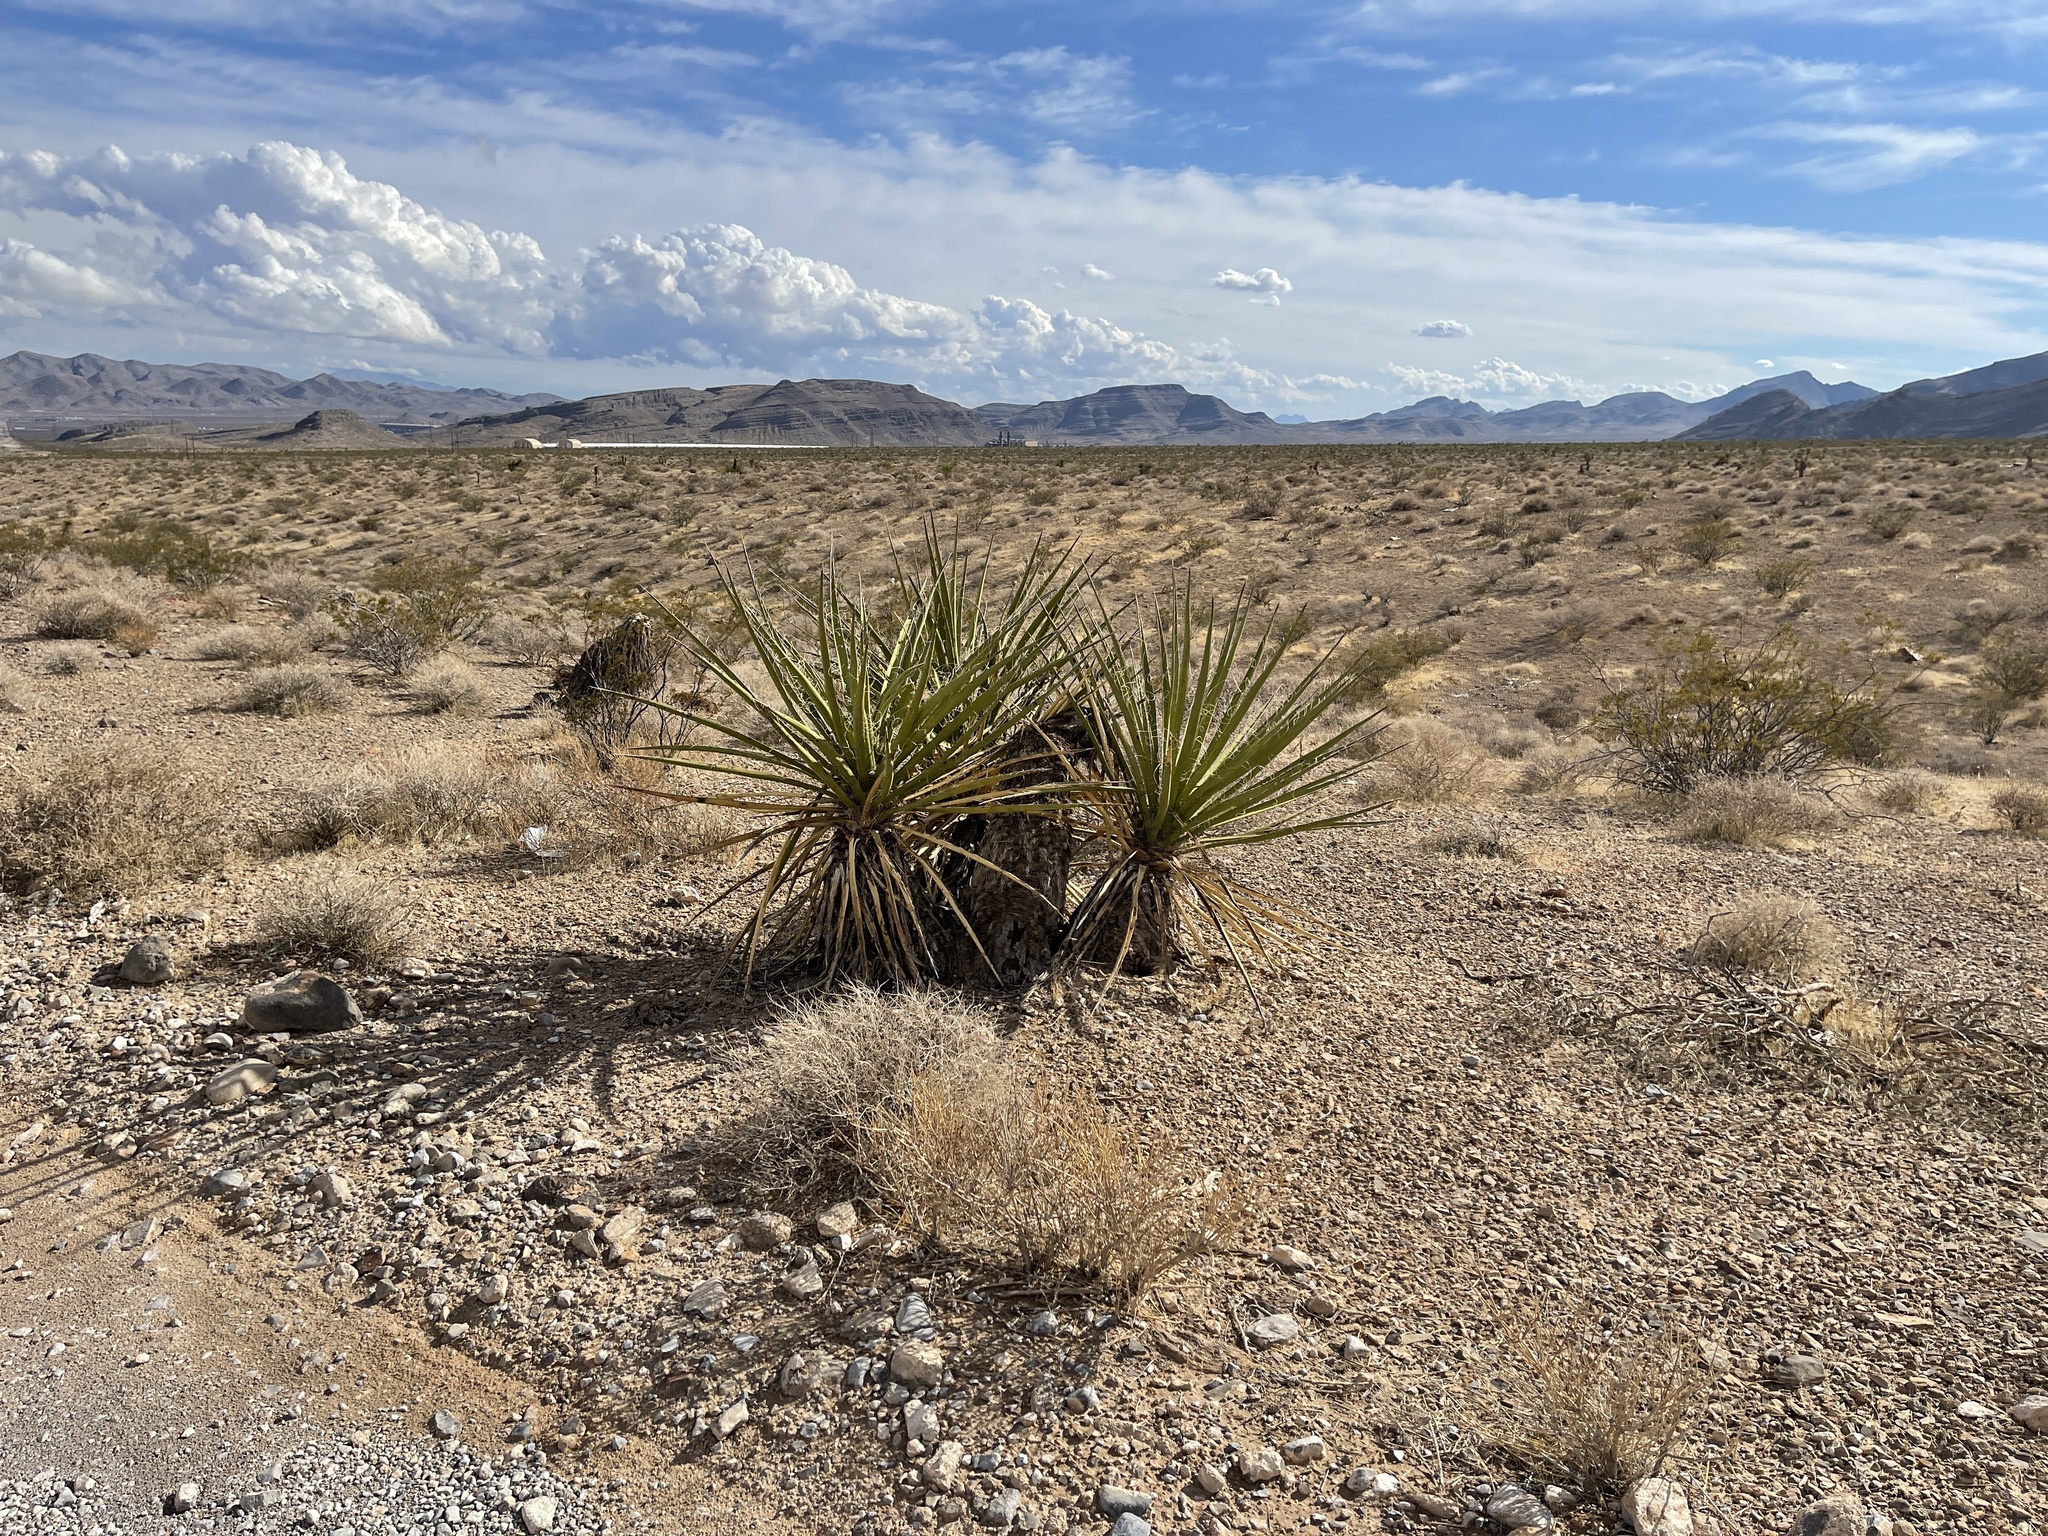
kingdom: Plantae
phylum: Tracheophyta
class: Liliopsida
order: Asparagales
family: Asparagaceae
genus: Yucca
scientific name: Yucca schidigera
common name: Mojave yucca
